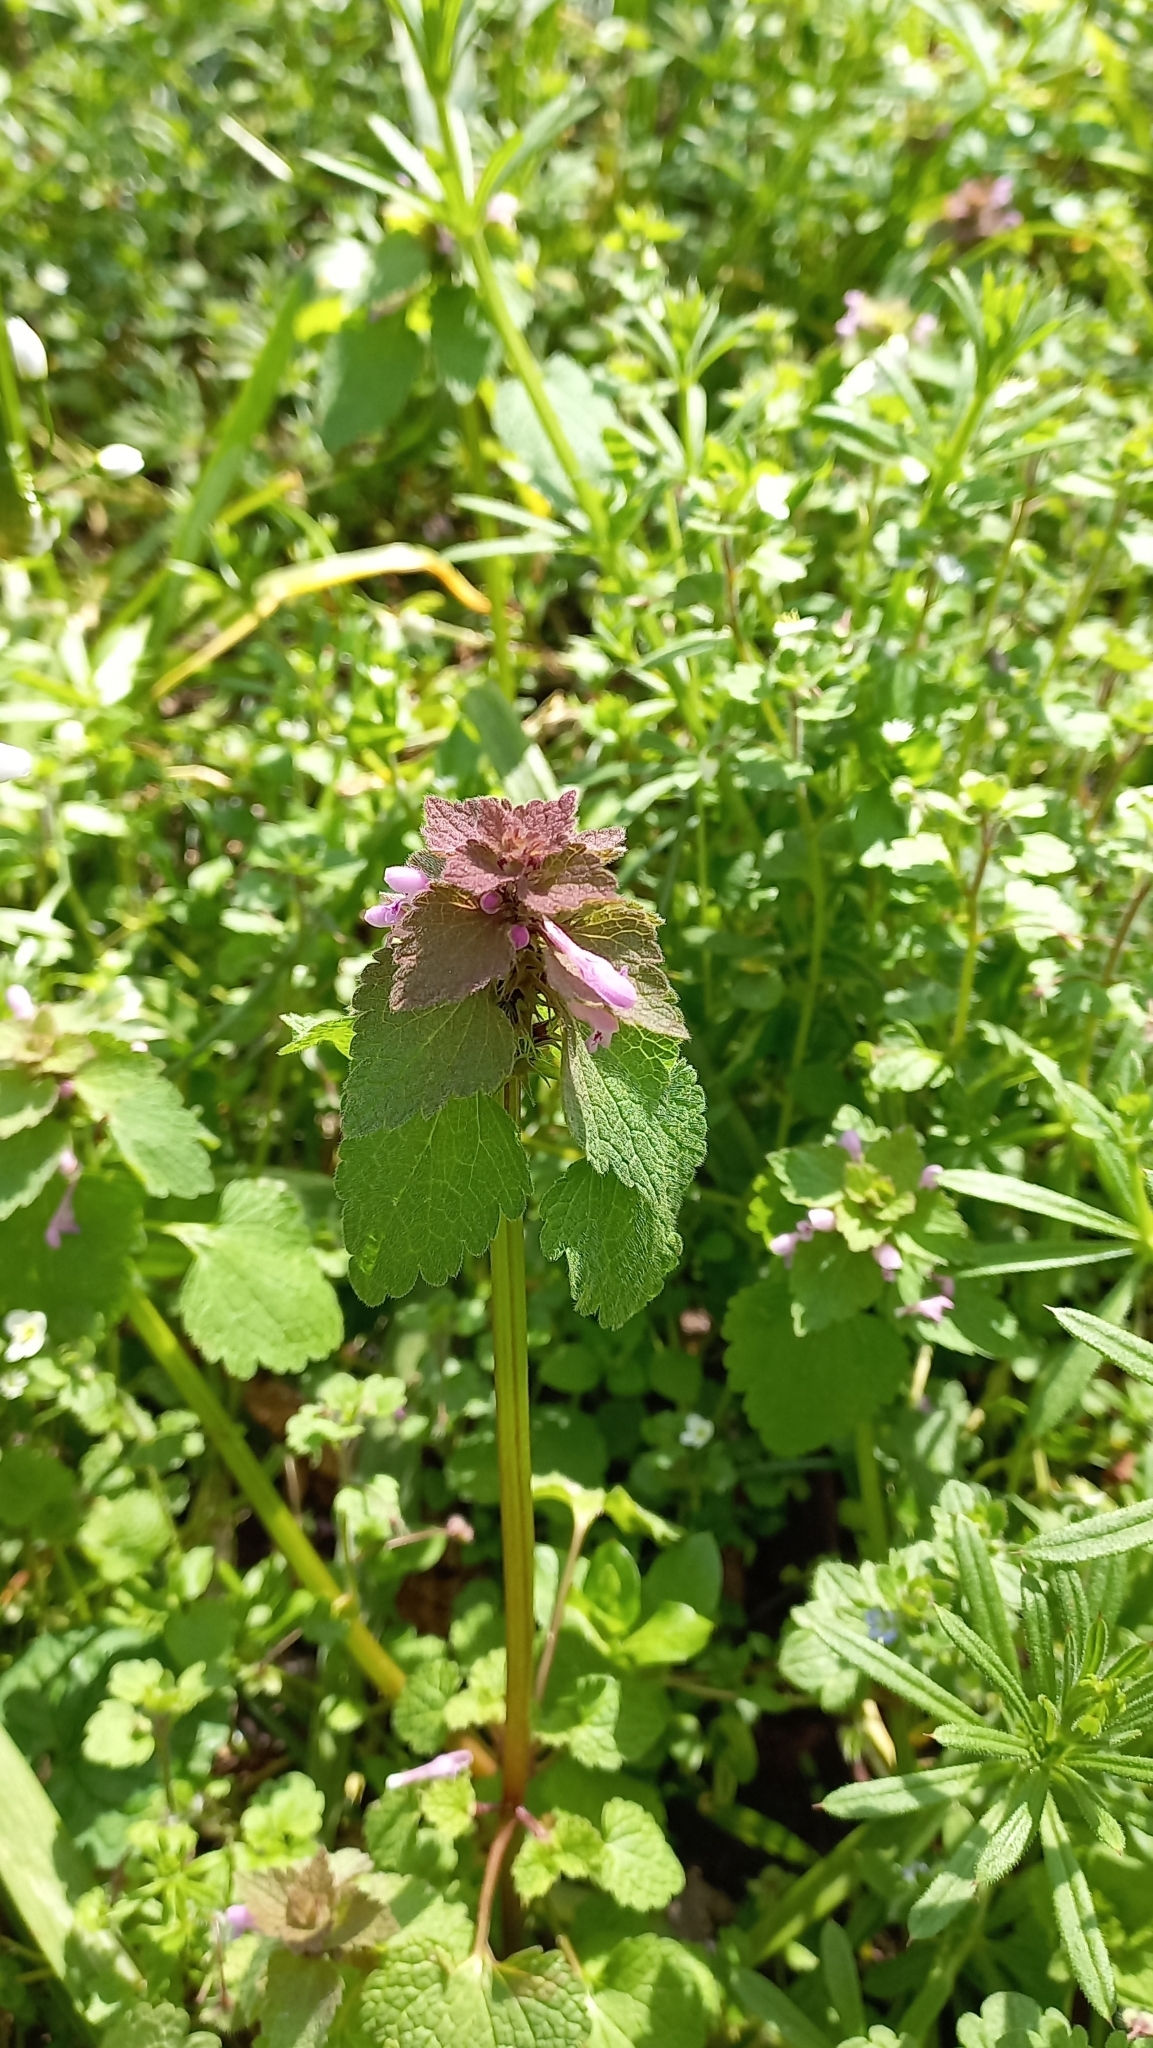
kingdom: Plantae
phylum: Tracheophyta
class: Magnoliopsida
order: Lamiales
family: Lamiaceae
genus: Lamium
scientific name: Lamium purpureum
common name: Red dead-nettle
